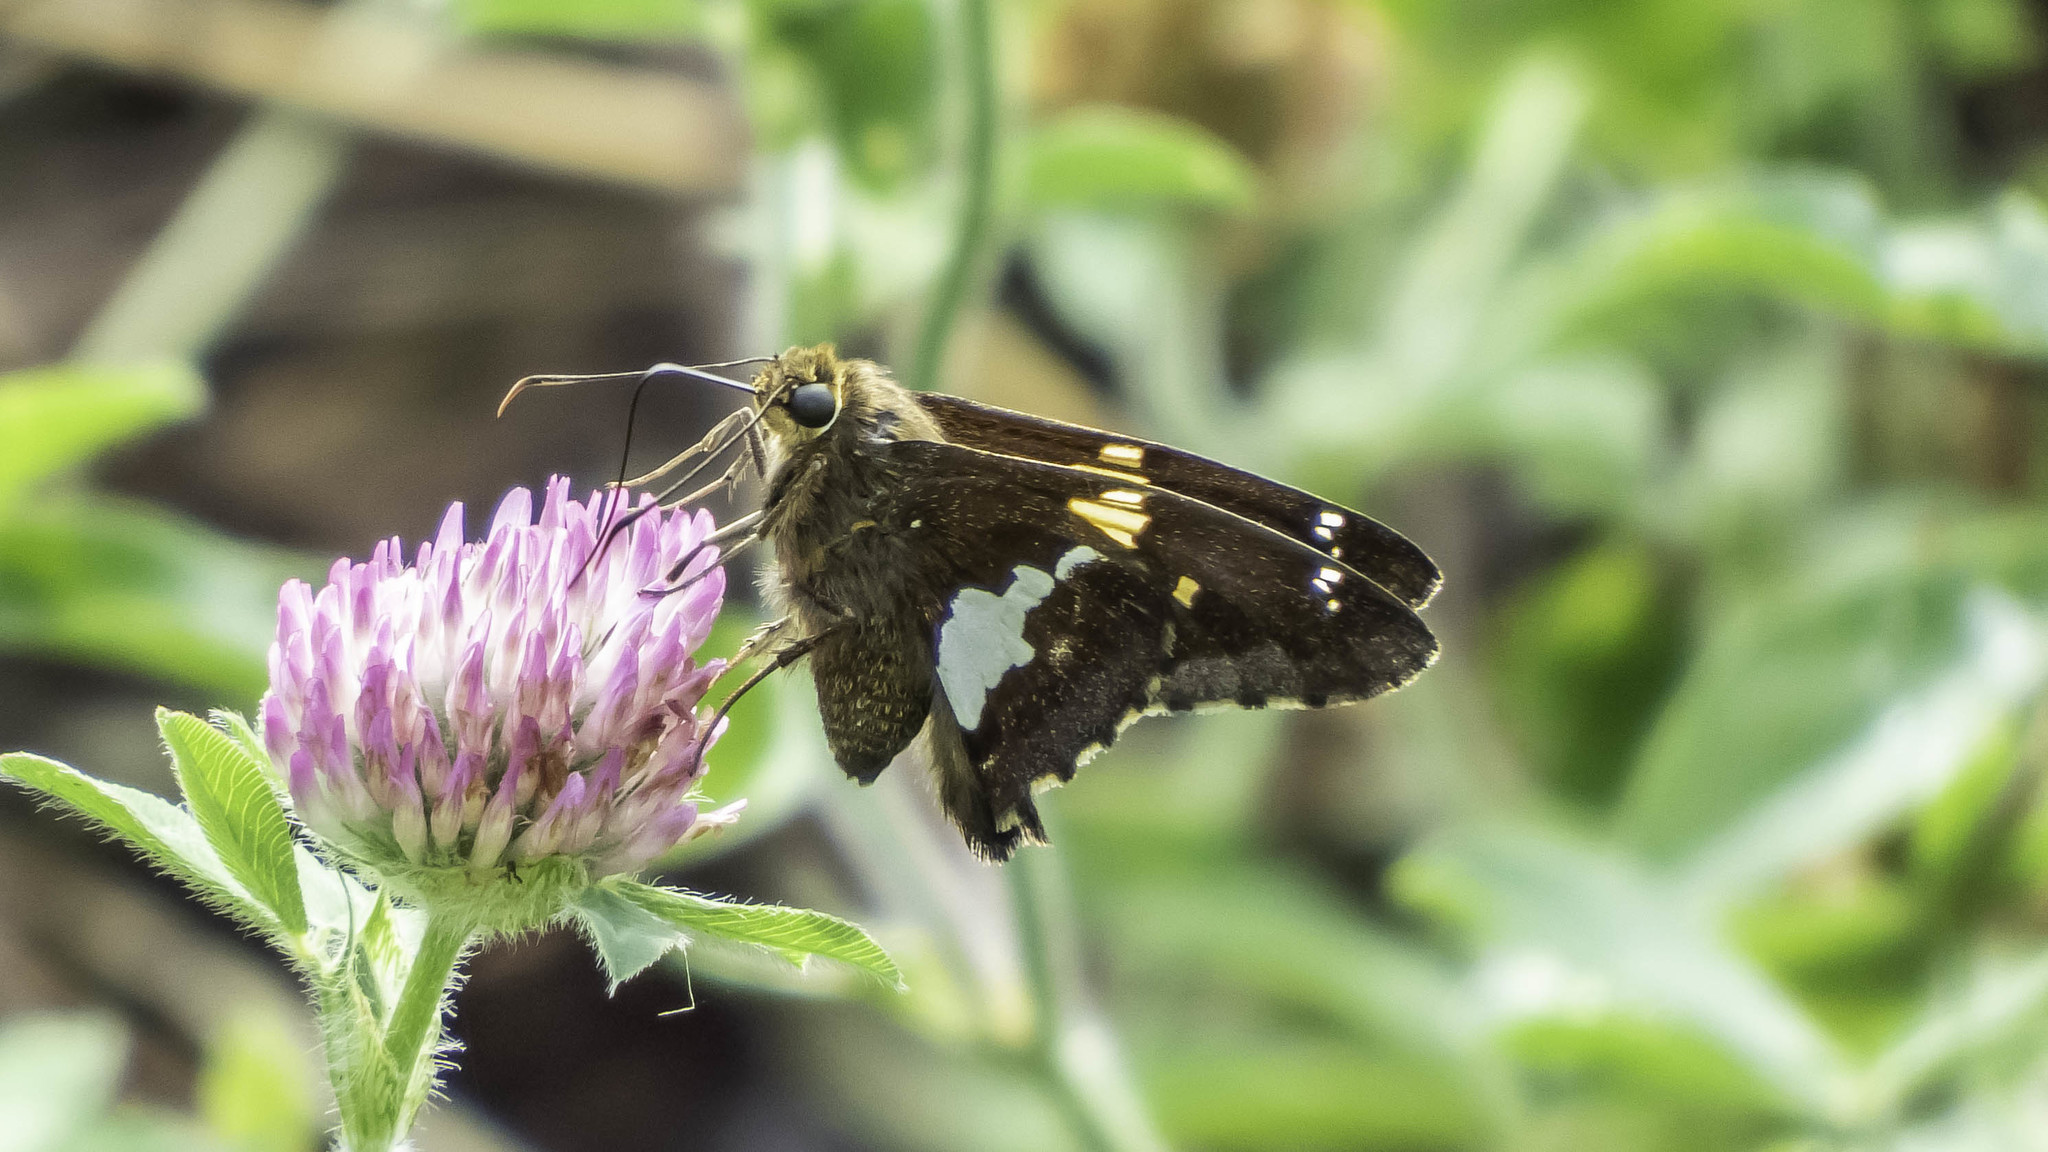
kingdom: Animalia
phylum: Arthropoda
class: Insecta
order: Lepidoptera
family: Hesperiidae
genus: Epargyreus
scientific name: Epargyreus clarus
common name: Silver-spotted skipper
